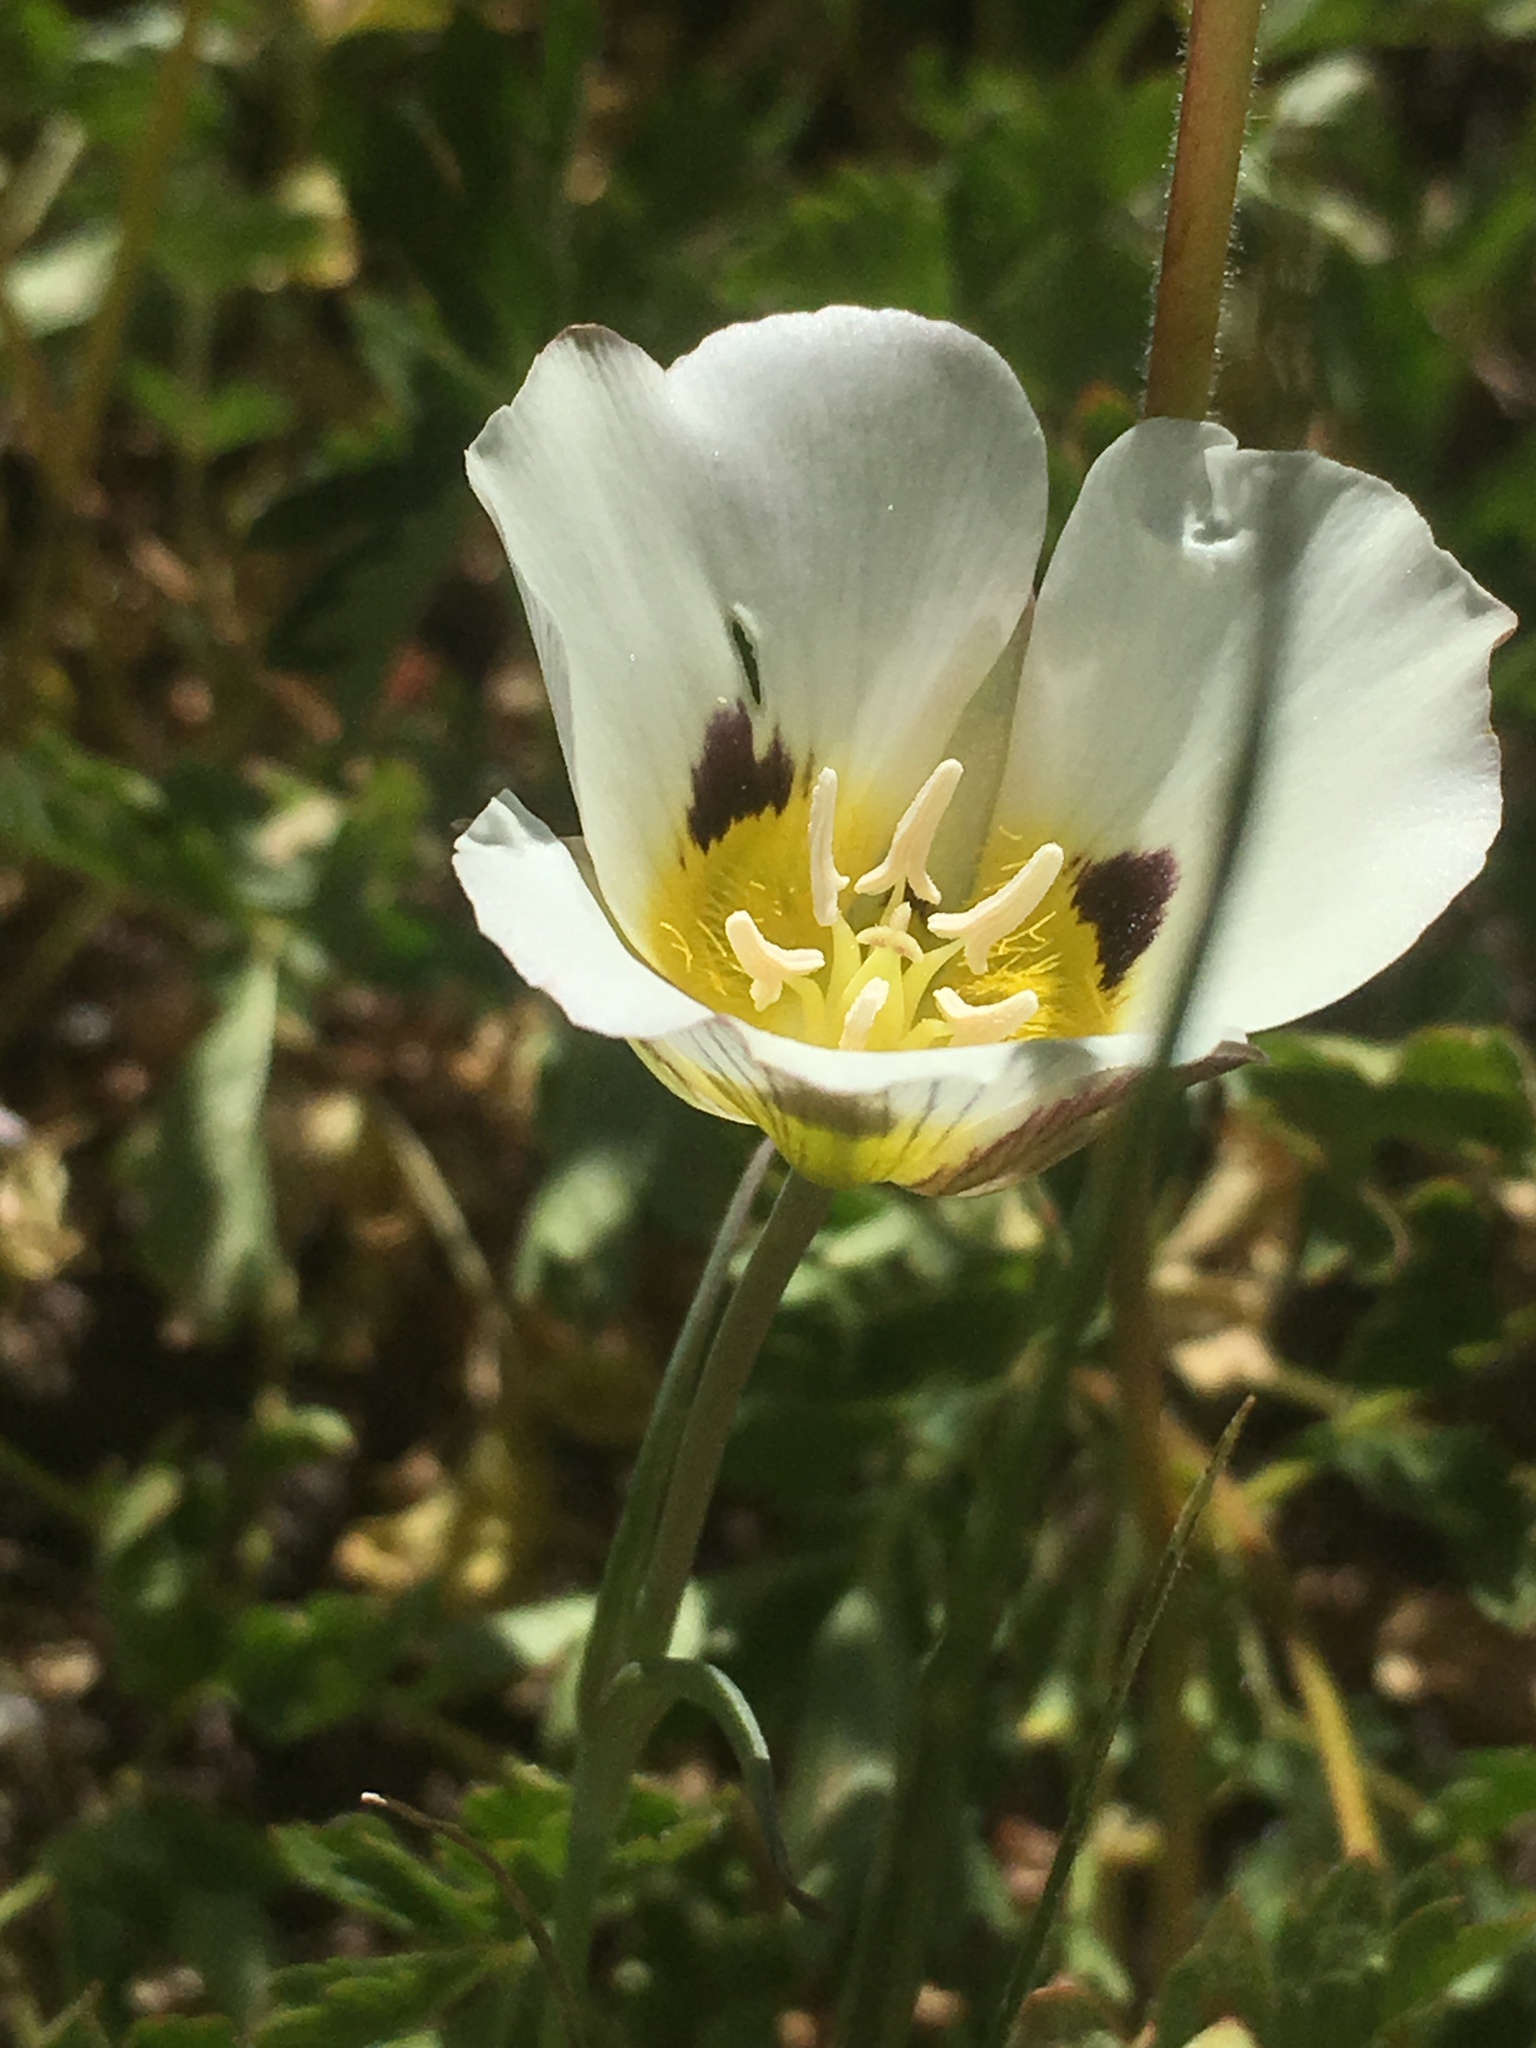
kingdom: Plantae
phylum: Tracheophyta
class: Liliopsida
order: Liliales
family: Liliaceae
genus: Calochortus
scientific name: Calochortus leichtlinii
